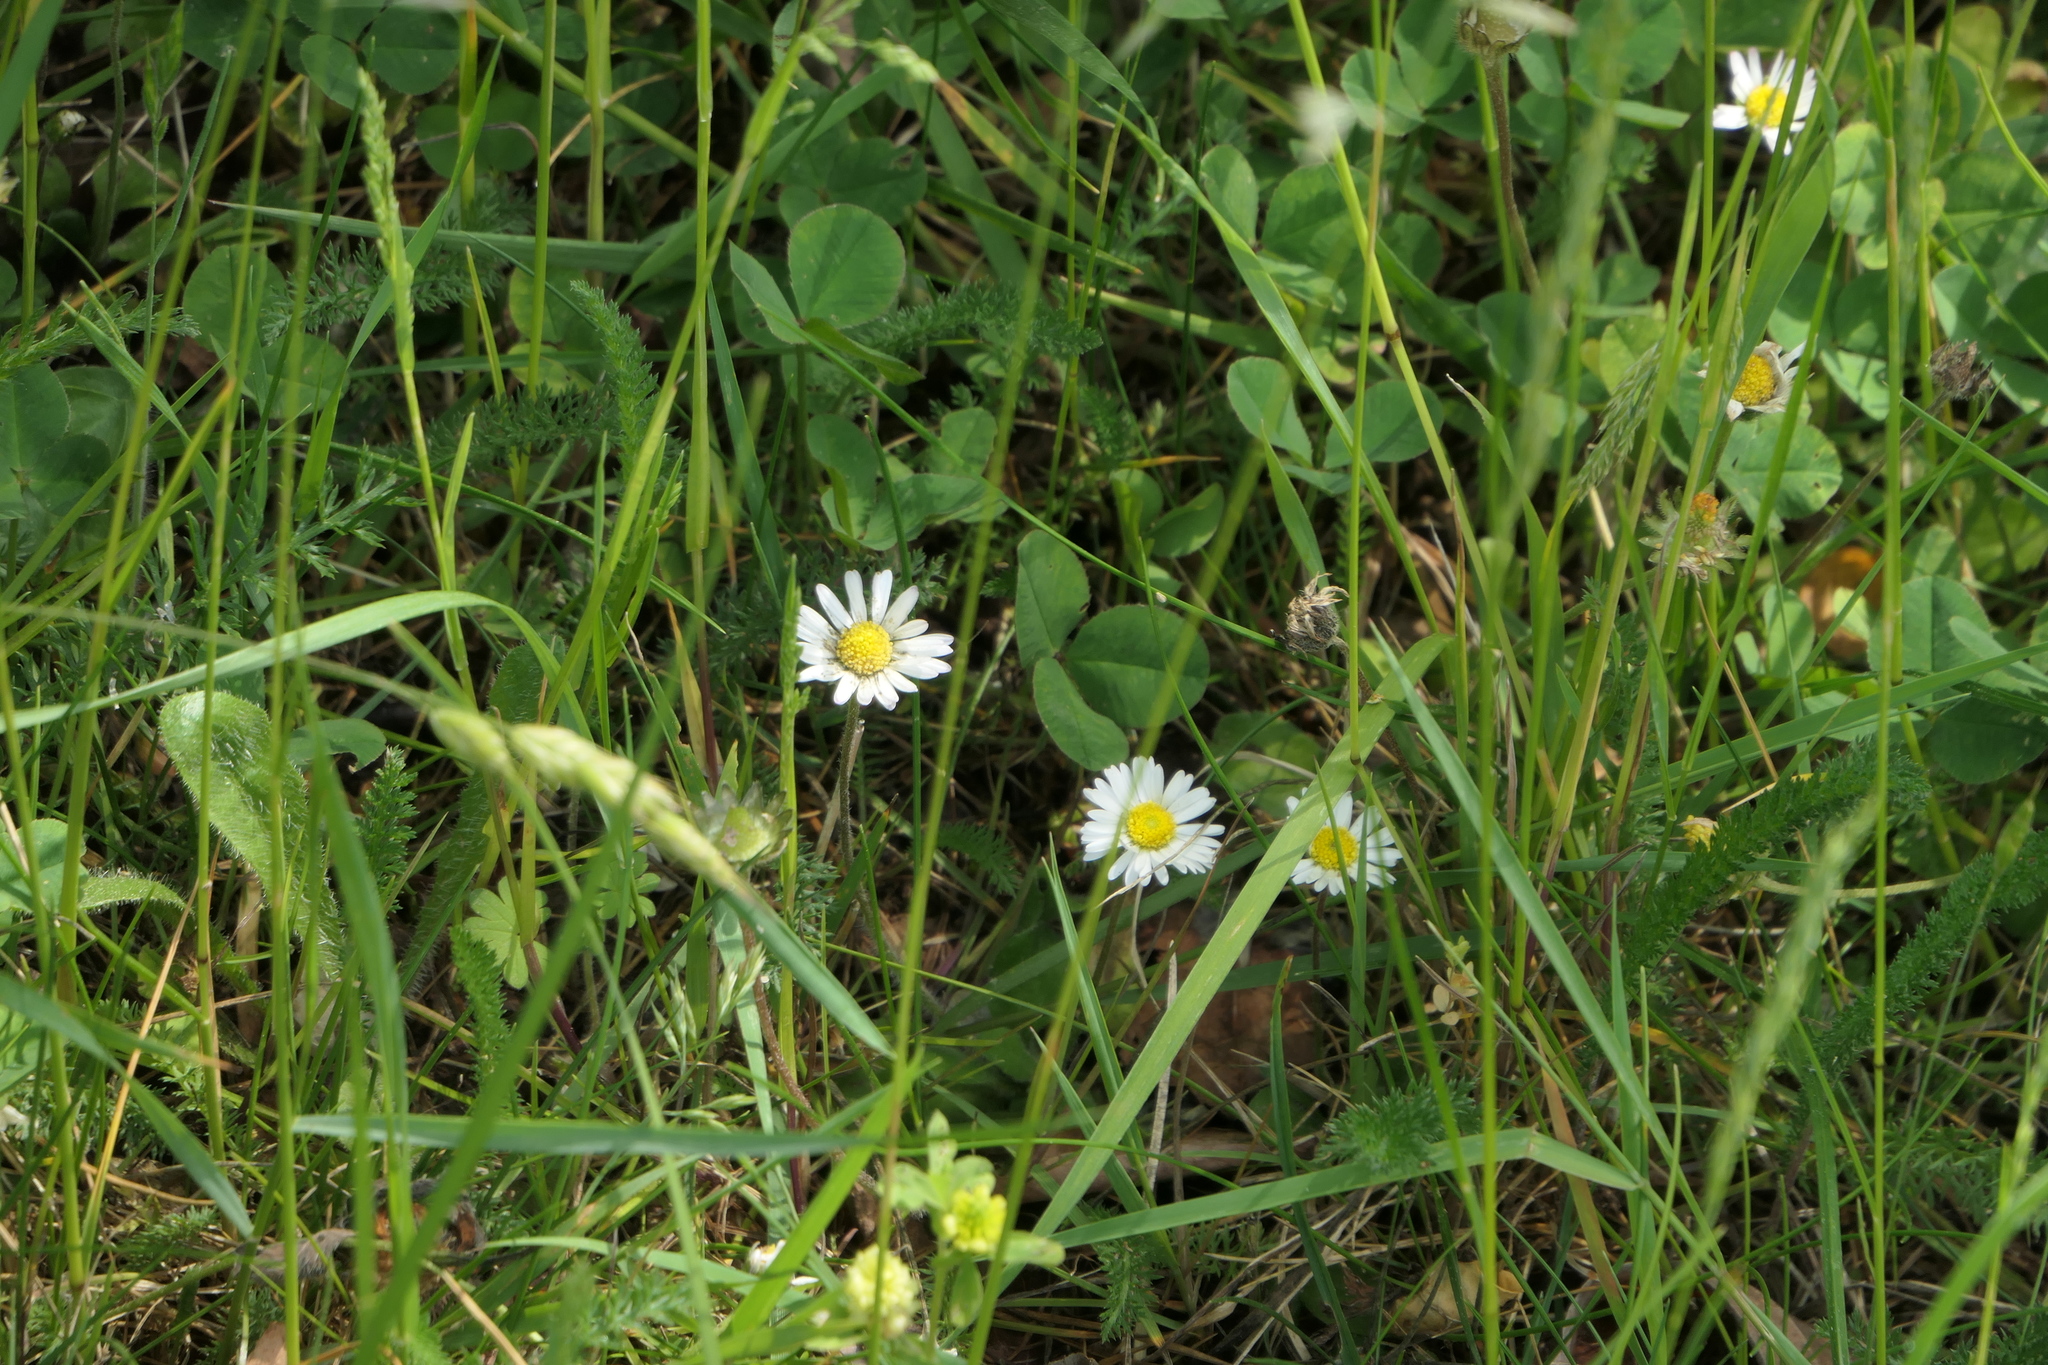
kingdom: Plantae
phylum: Tracheophyta
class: Magnoliopsida
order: Asterales
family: Asteraceae
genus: Bellis
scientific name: Bellis perennis
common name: Lawndaisy
